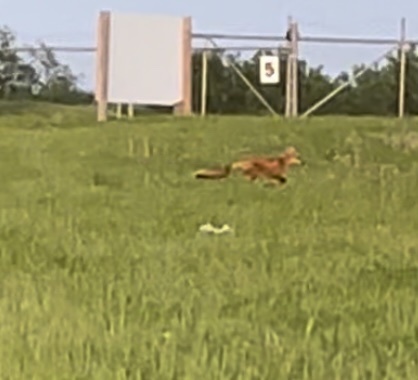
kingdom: Animalia
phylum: Chordata
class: Mammalia
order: Carnivora
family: Canidae
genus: Vulpes
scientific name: Vulpes vulpes
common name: Red fox
